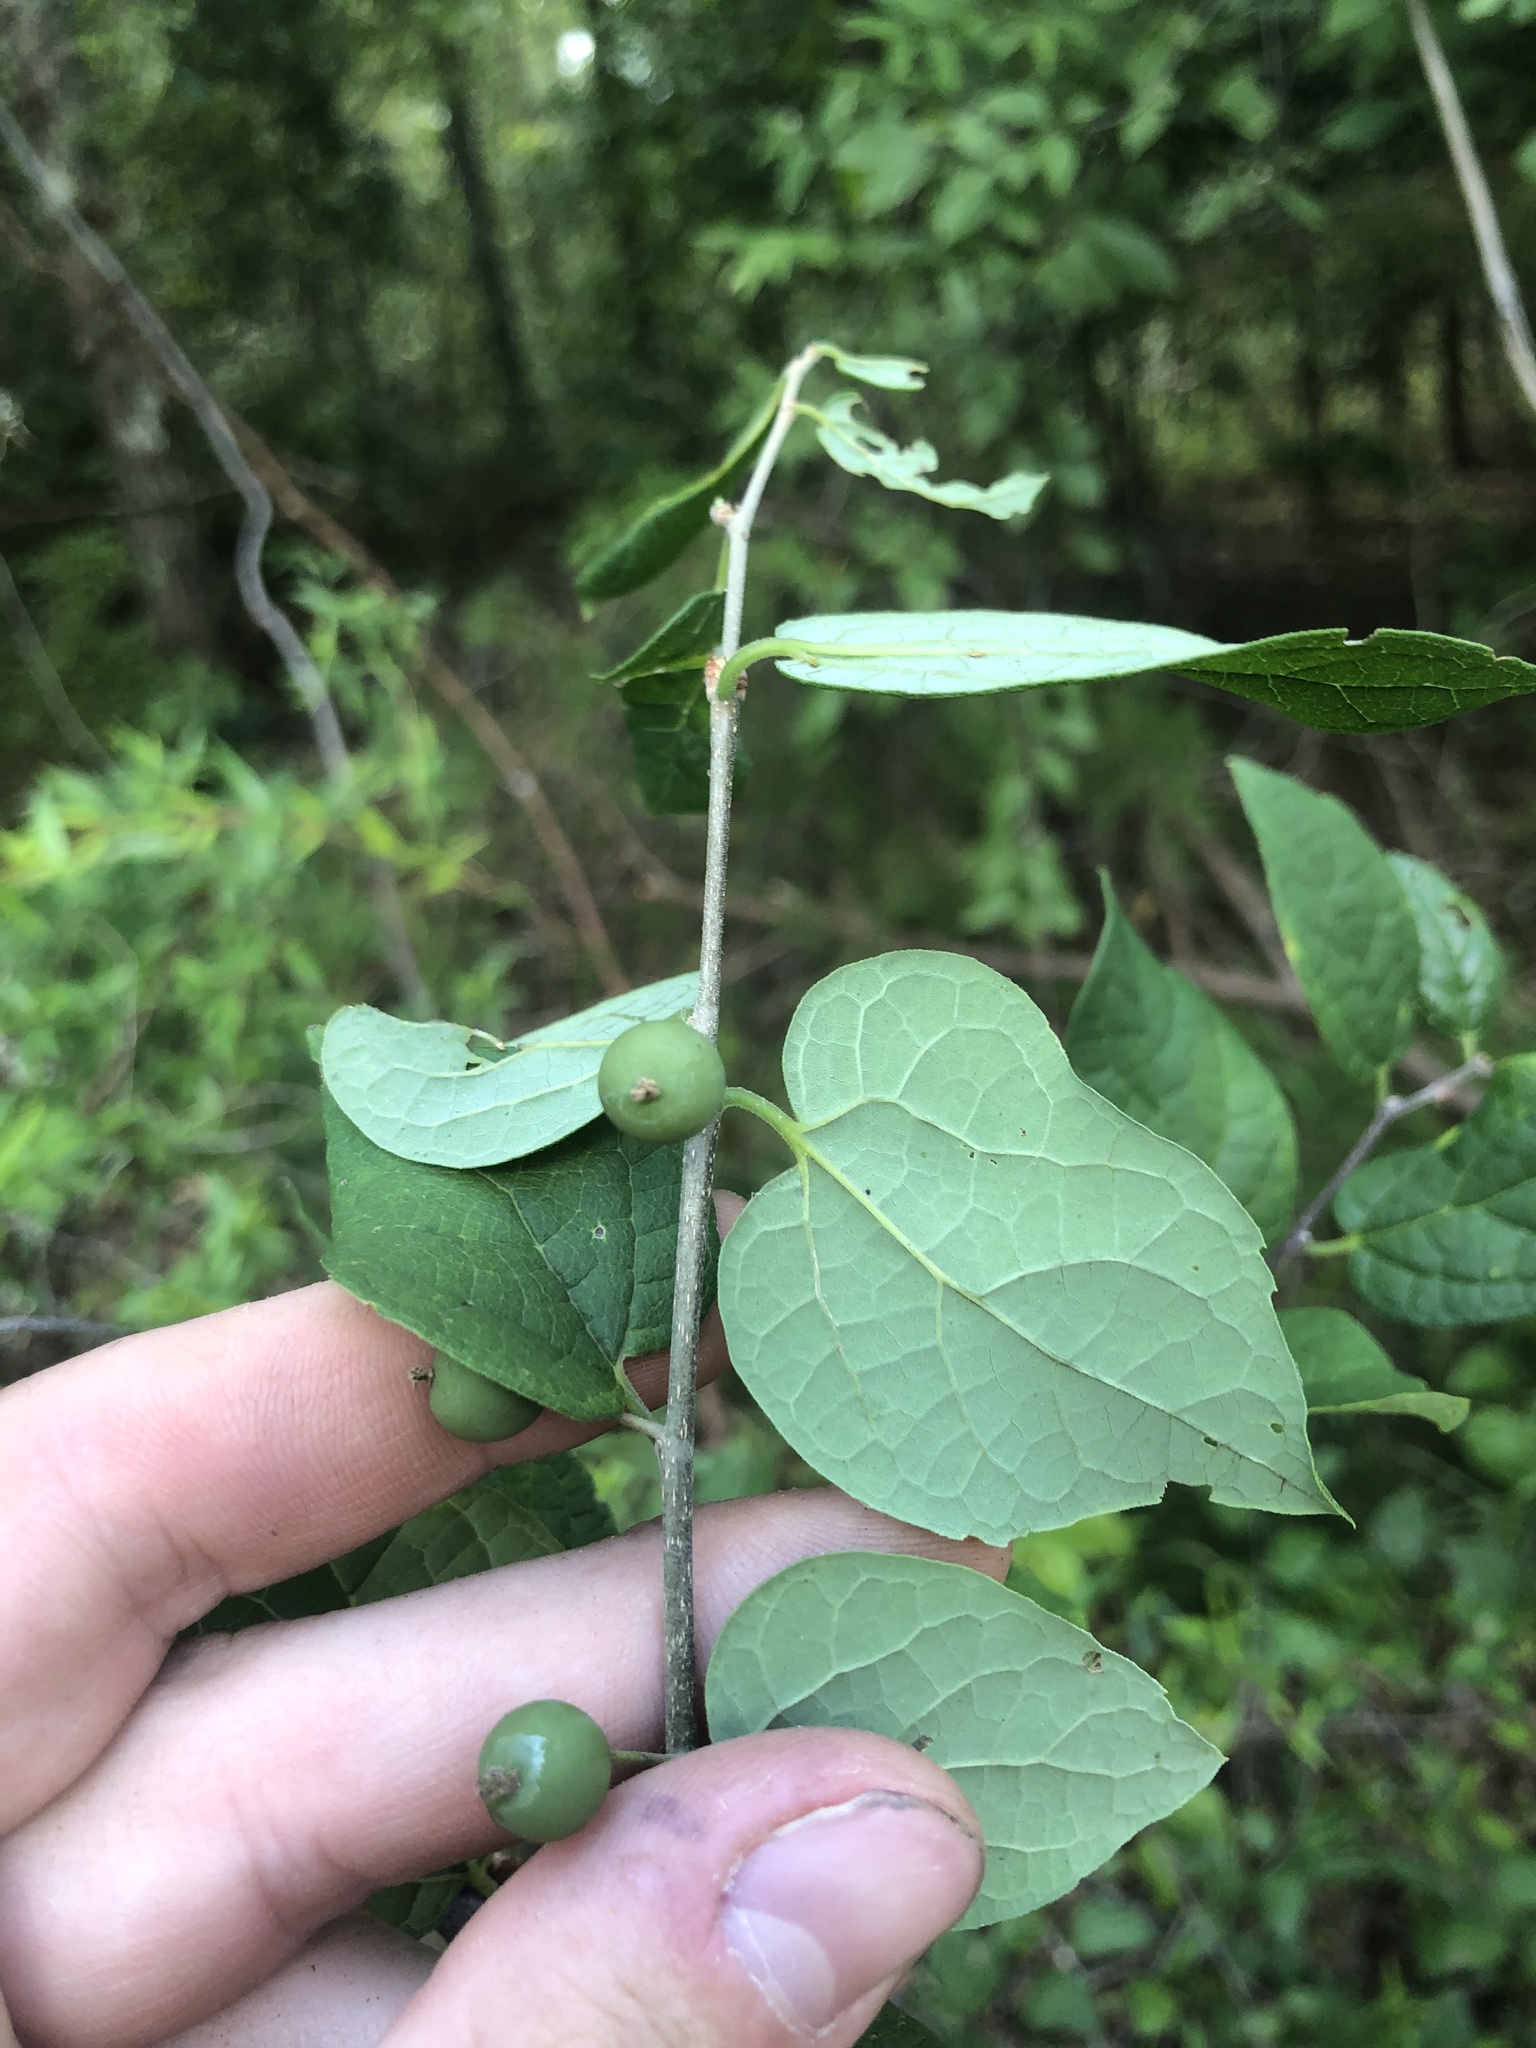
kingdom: Plantae
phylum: Tracheophyta
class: Magnoliopsida
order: Rosales
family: Cannabaceae
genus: Celtis
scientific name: Celtis tenuifolia
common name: Georgia hackberry
